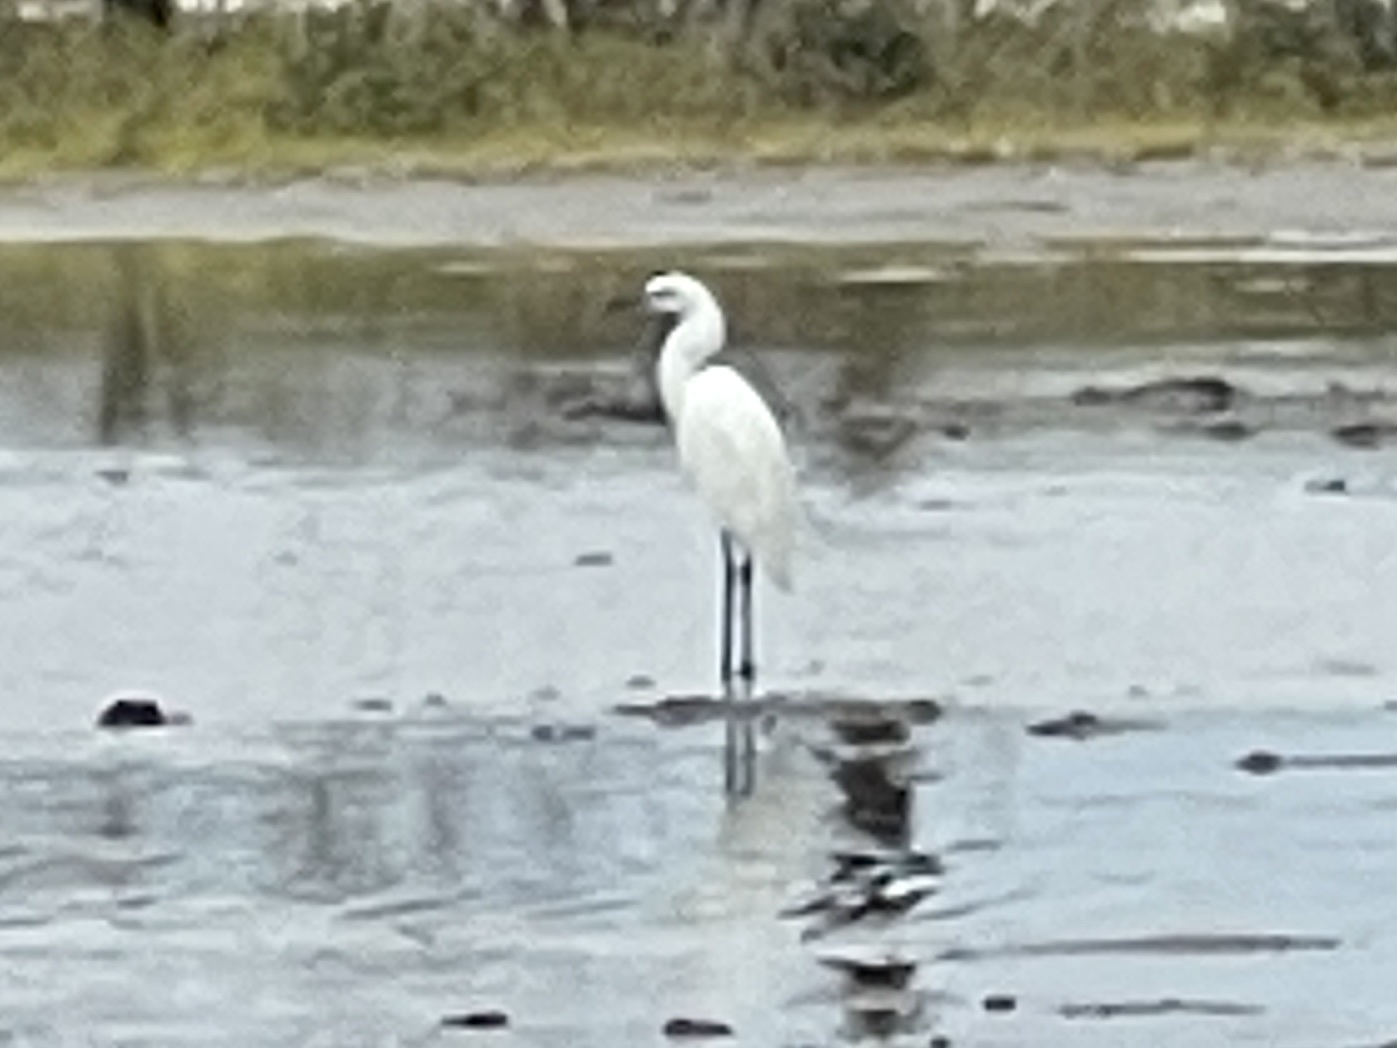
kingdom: Animalia
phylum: Chordata
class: Aves
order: Pelecaniformes
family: Ardeidae
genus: Egretta
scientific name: Egretta rufescens
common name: Reddish egret
